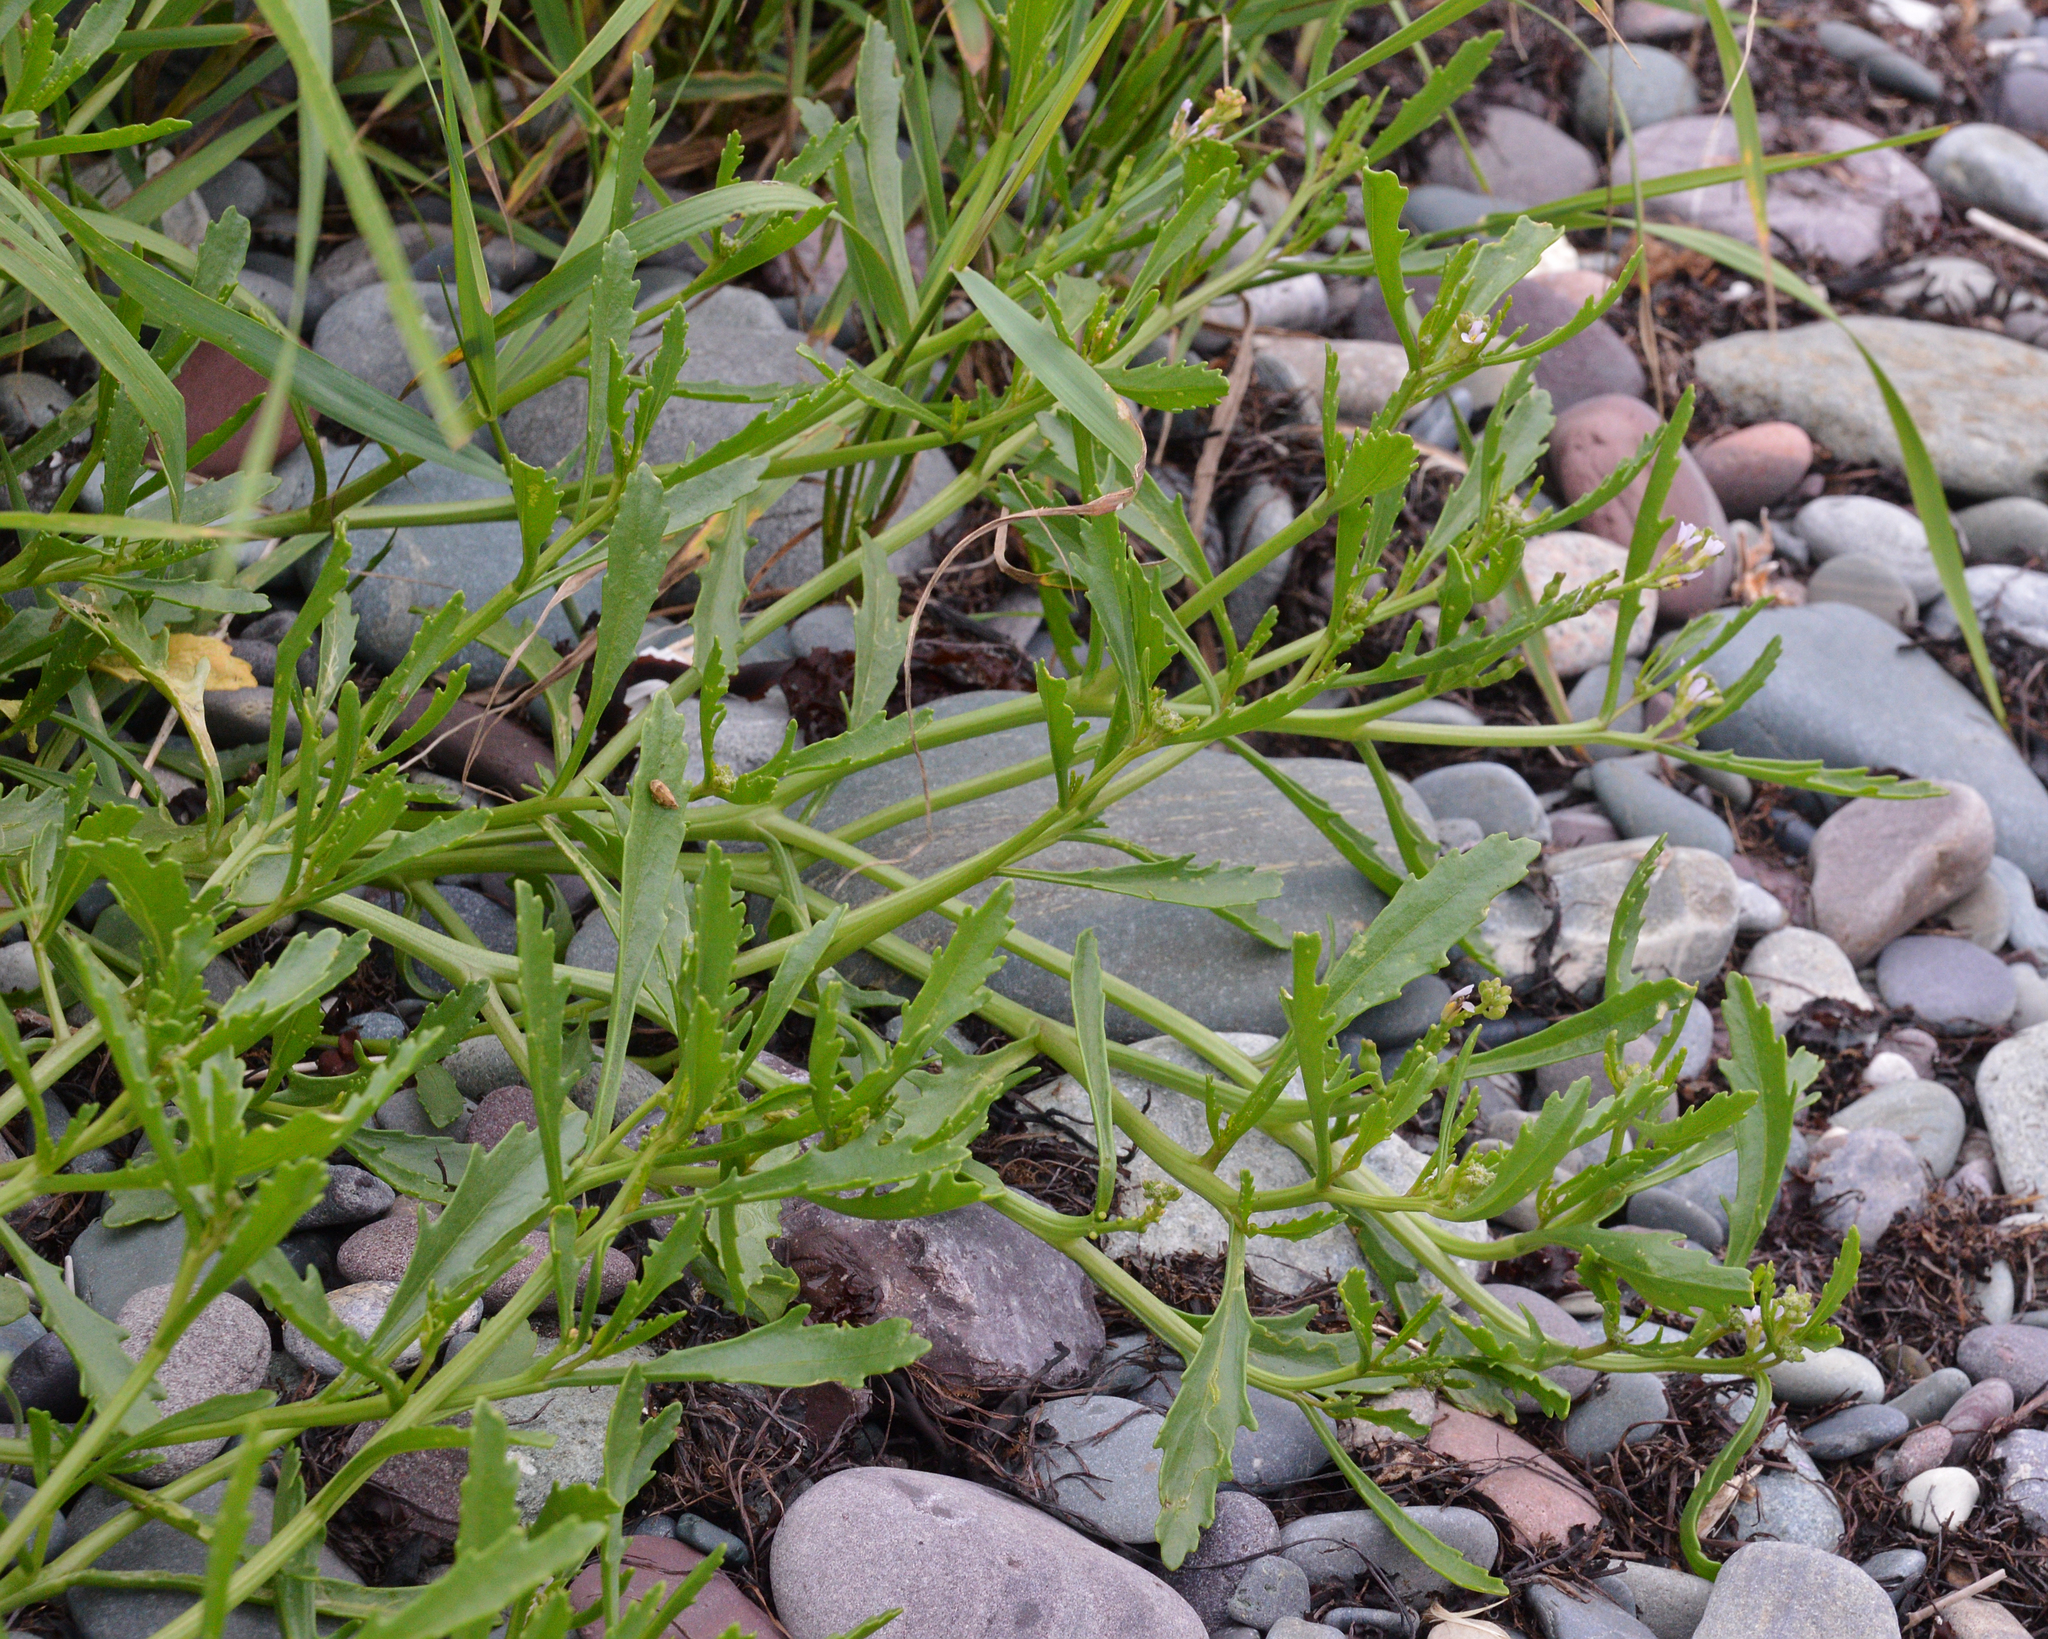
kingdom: Plantae
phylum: Tracheophyta
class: Magnoliopsida
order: Brassicales
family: Brassicaceae
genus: Cakile
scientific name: Cakile edentula
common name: American sea rocket
